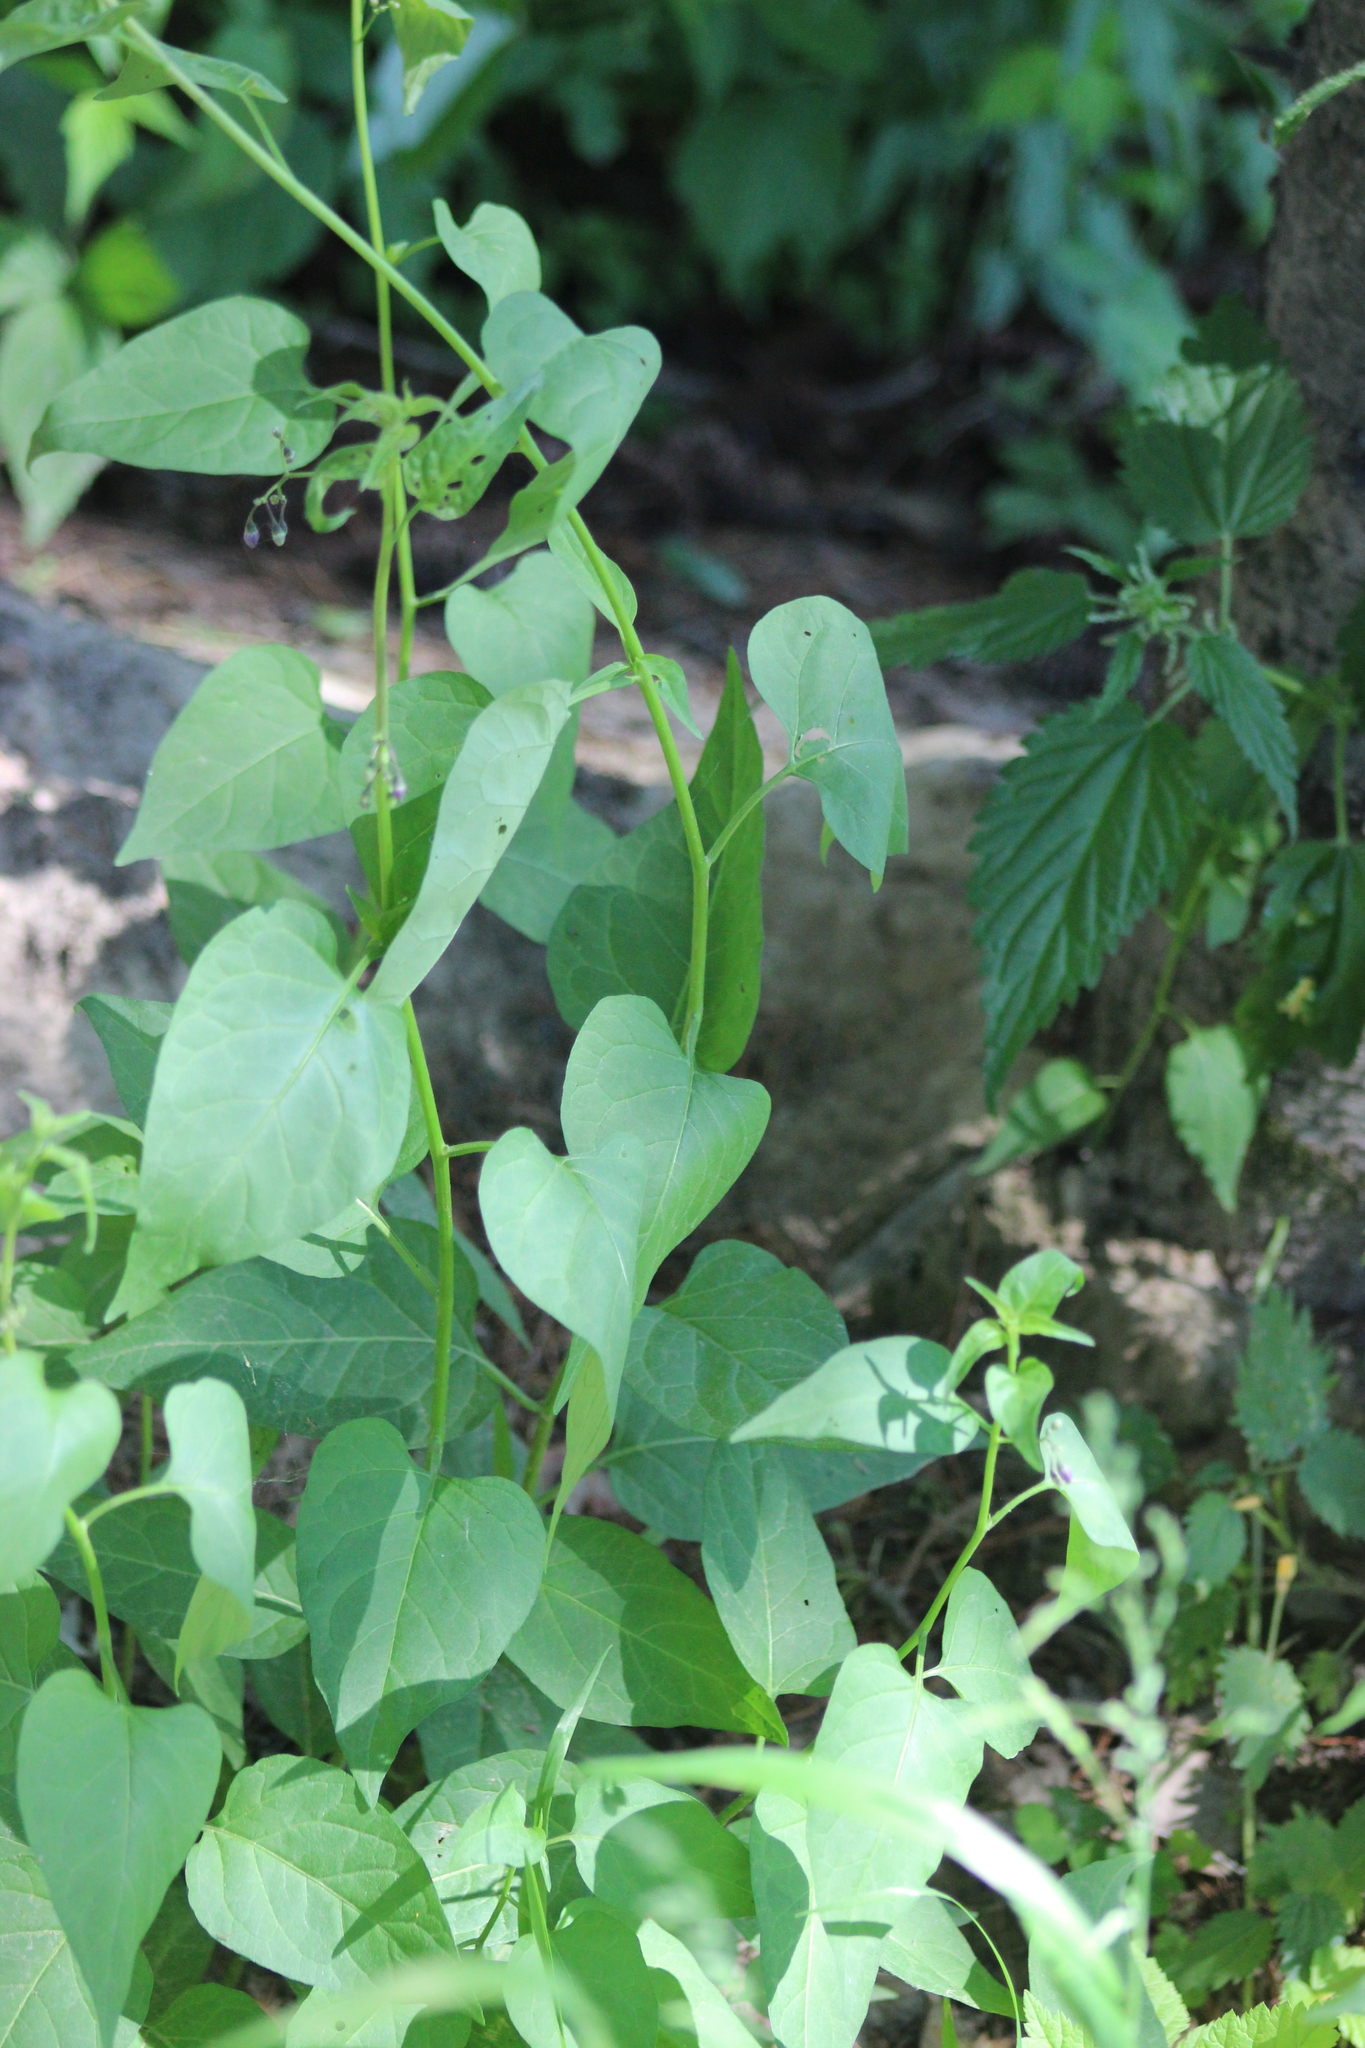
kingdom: Plantae
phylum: Tracheophyta
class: Magnoliopsida
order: Solanales
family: Solanaceae
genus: Solanum
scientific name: Solanum dulcamara
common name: Climbing nightshade
